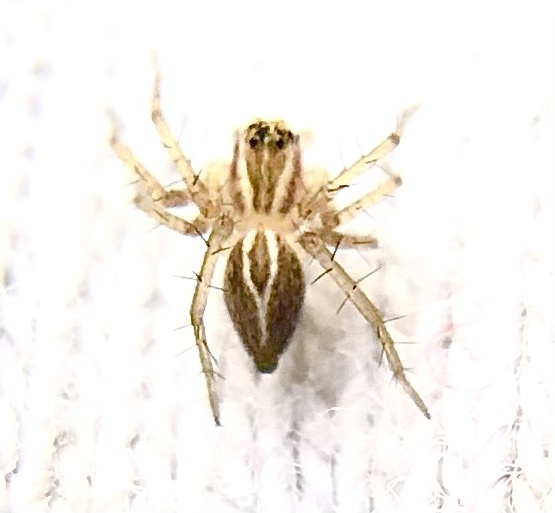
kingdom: Animalia
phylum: Arthropoda
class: Arachnida
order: Araneae
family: Oxyopidae
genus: Oxyopes
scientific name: Oxyopes salticus
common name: Lynx spiders
